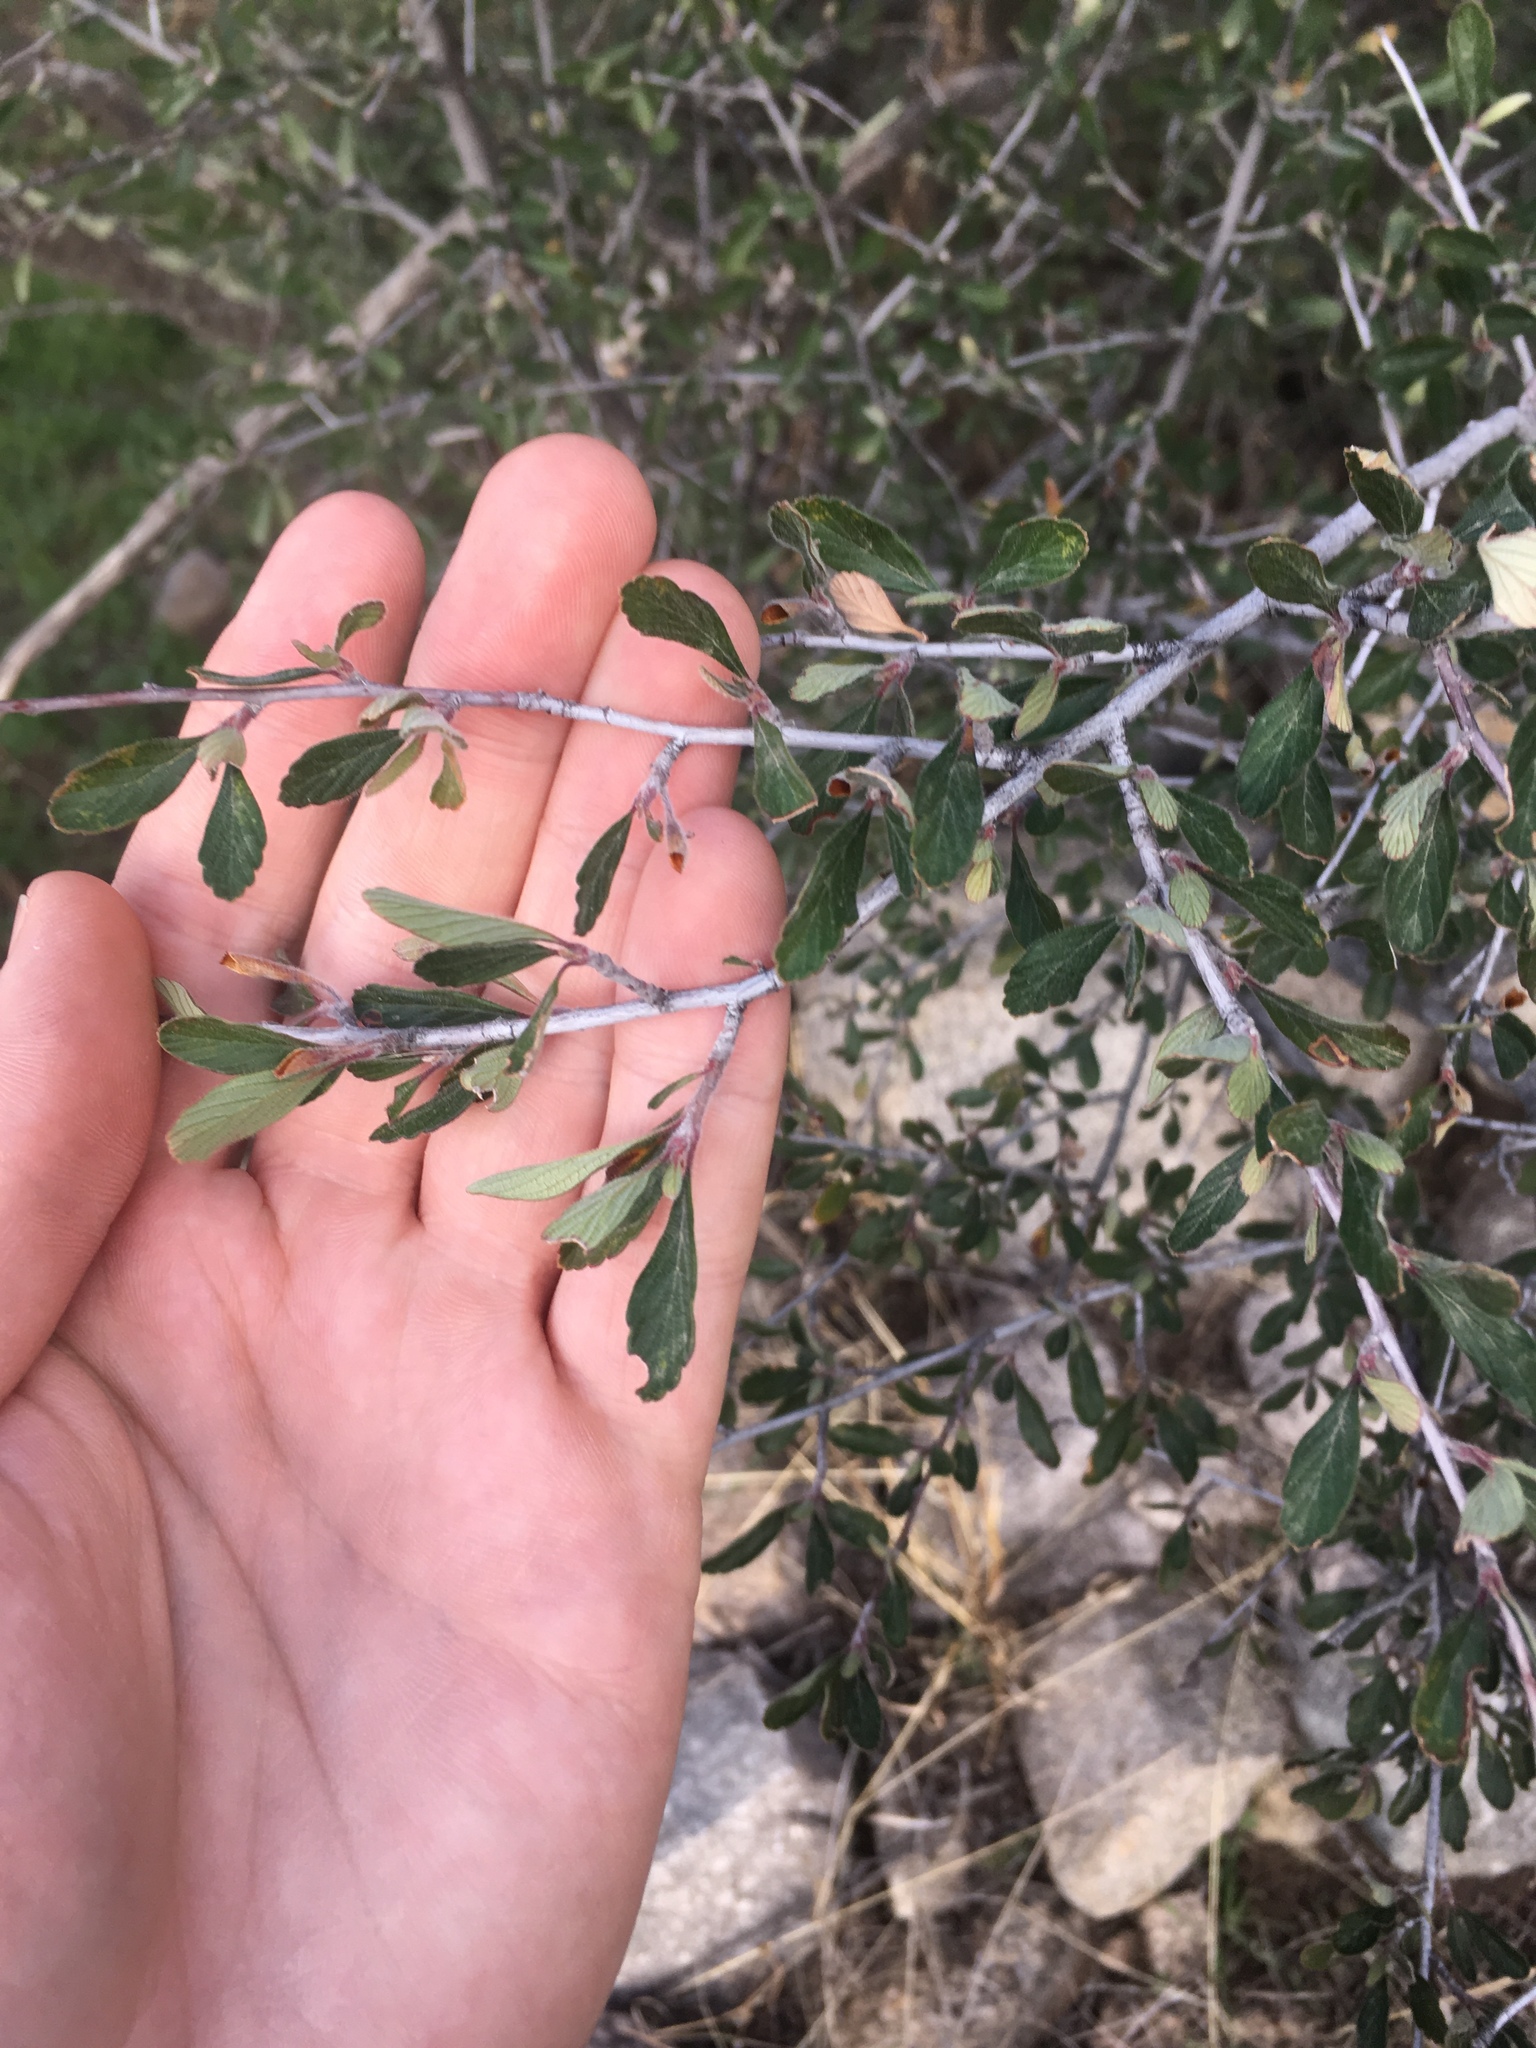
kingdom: Plantae
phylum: Tracheophyta
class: Magnoliopsida
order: Rosales
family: Rosaceae
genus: Cercocarpus
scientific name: Cercocarpus breviflorus
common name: Wright's mountain-mahogany
